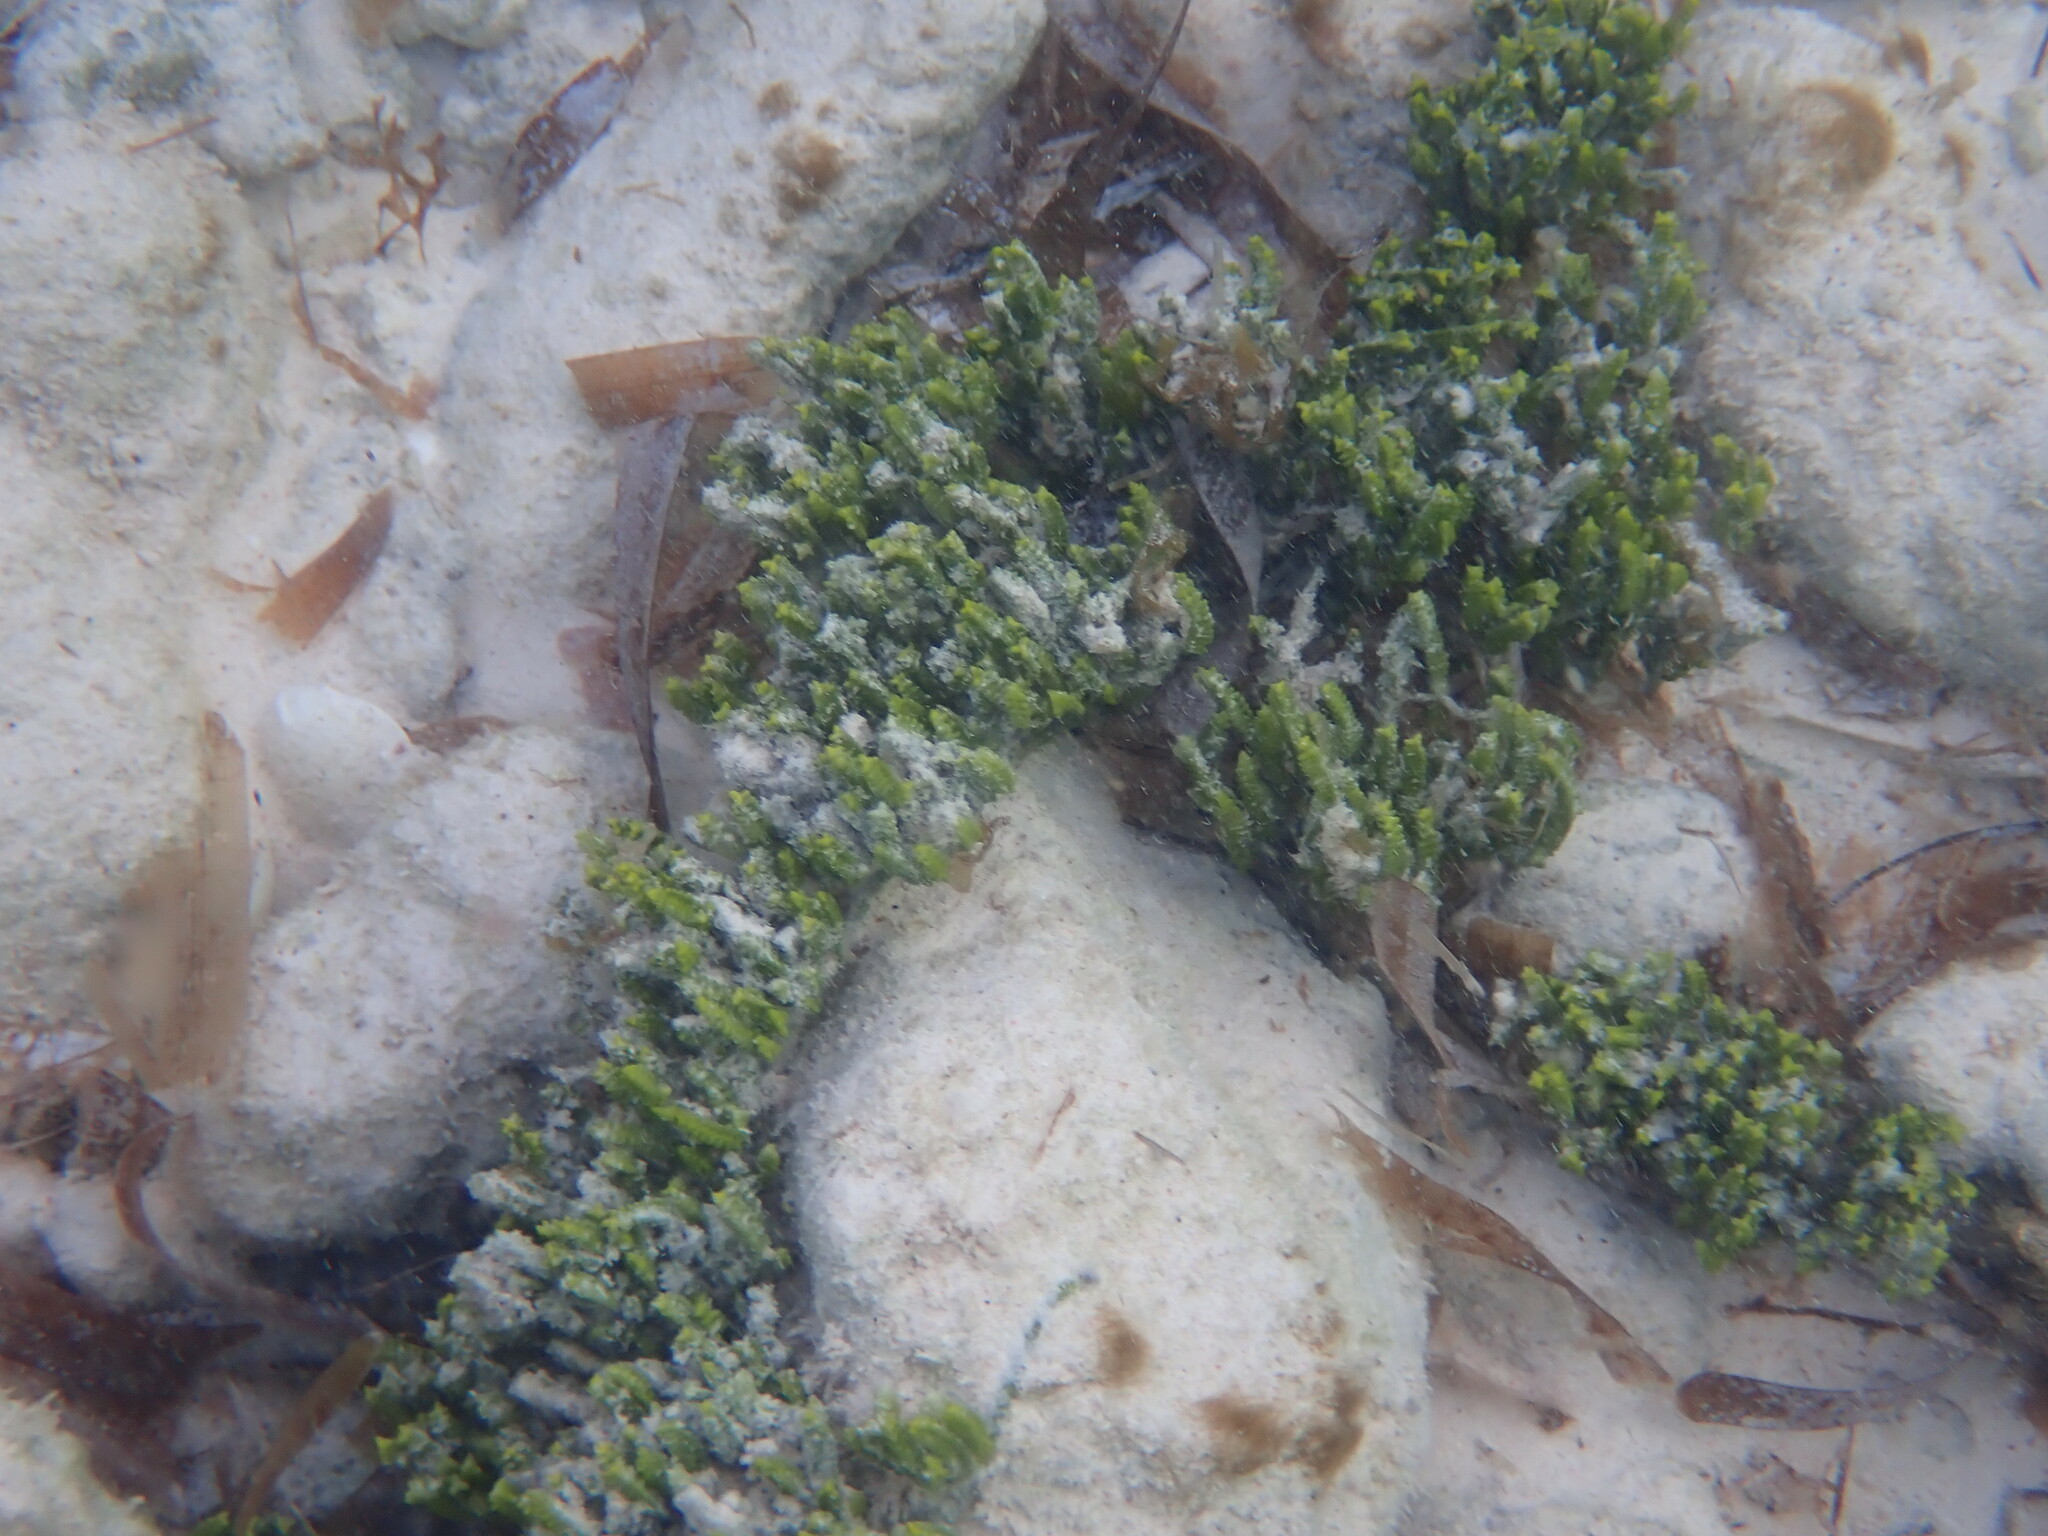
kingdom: Plantae
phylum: Chlorophyta
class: Ulvophyceae
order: Bryopsidales
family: Caulerpaceae
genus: Caulerpa
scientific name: Caulerpa cupressoides
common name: Cactus tree algae
